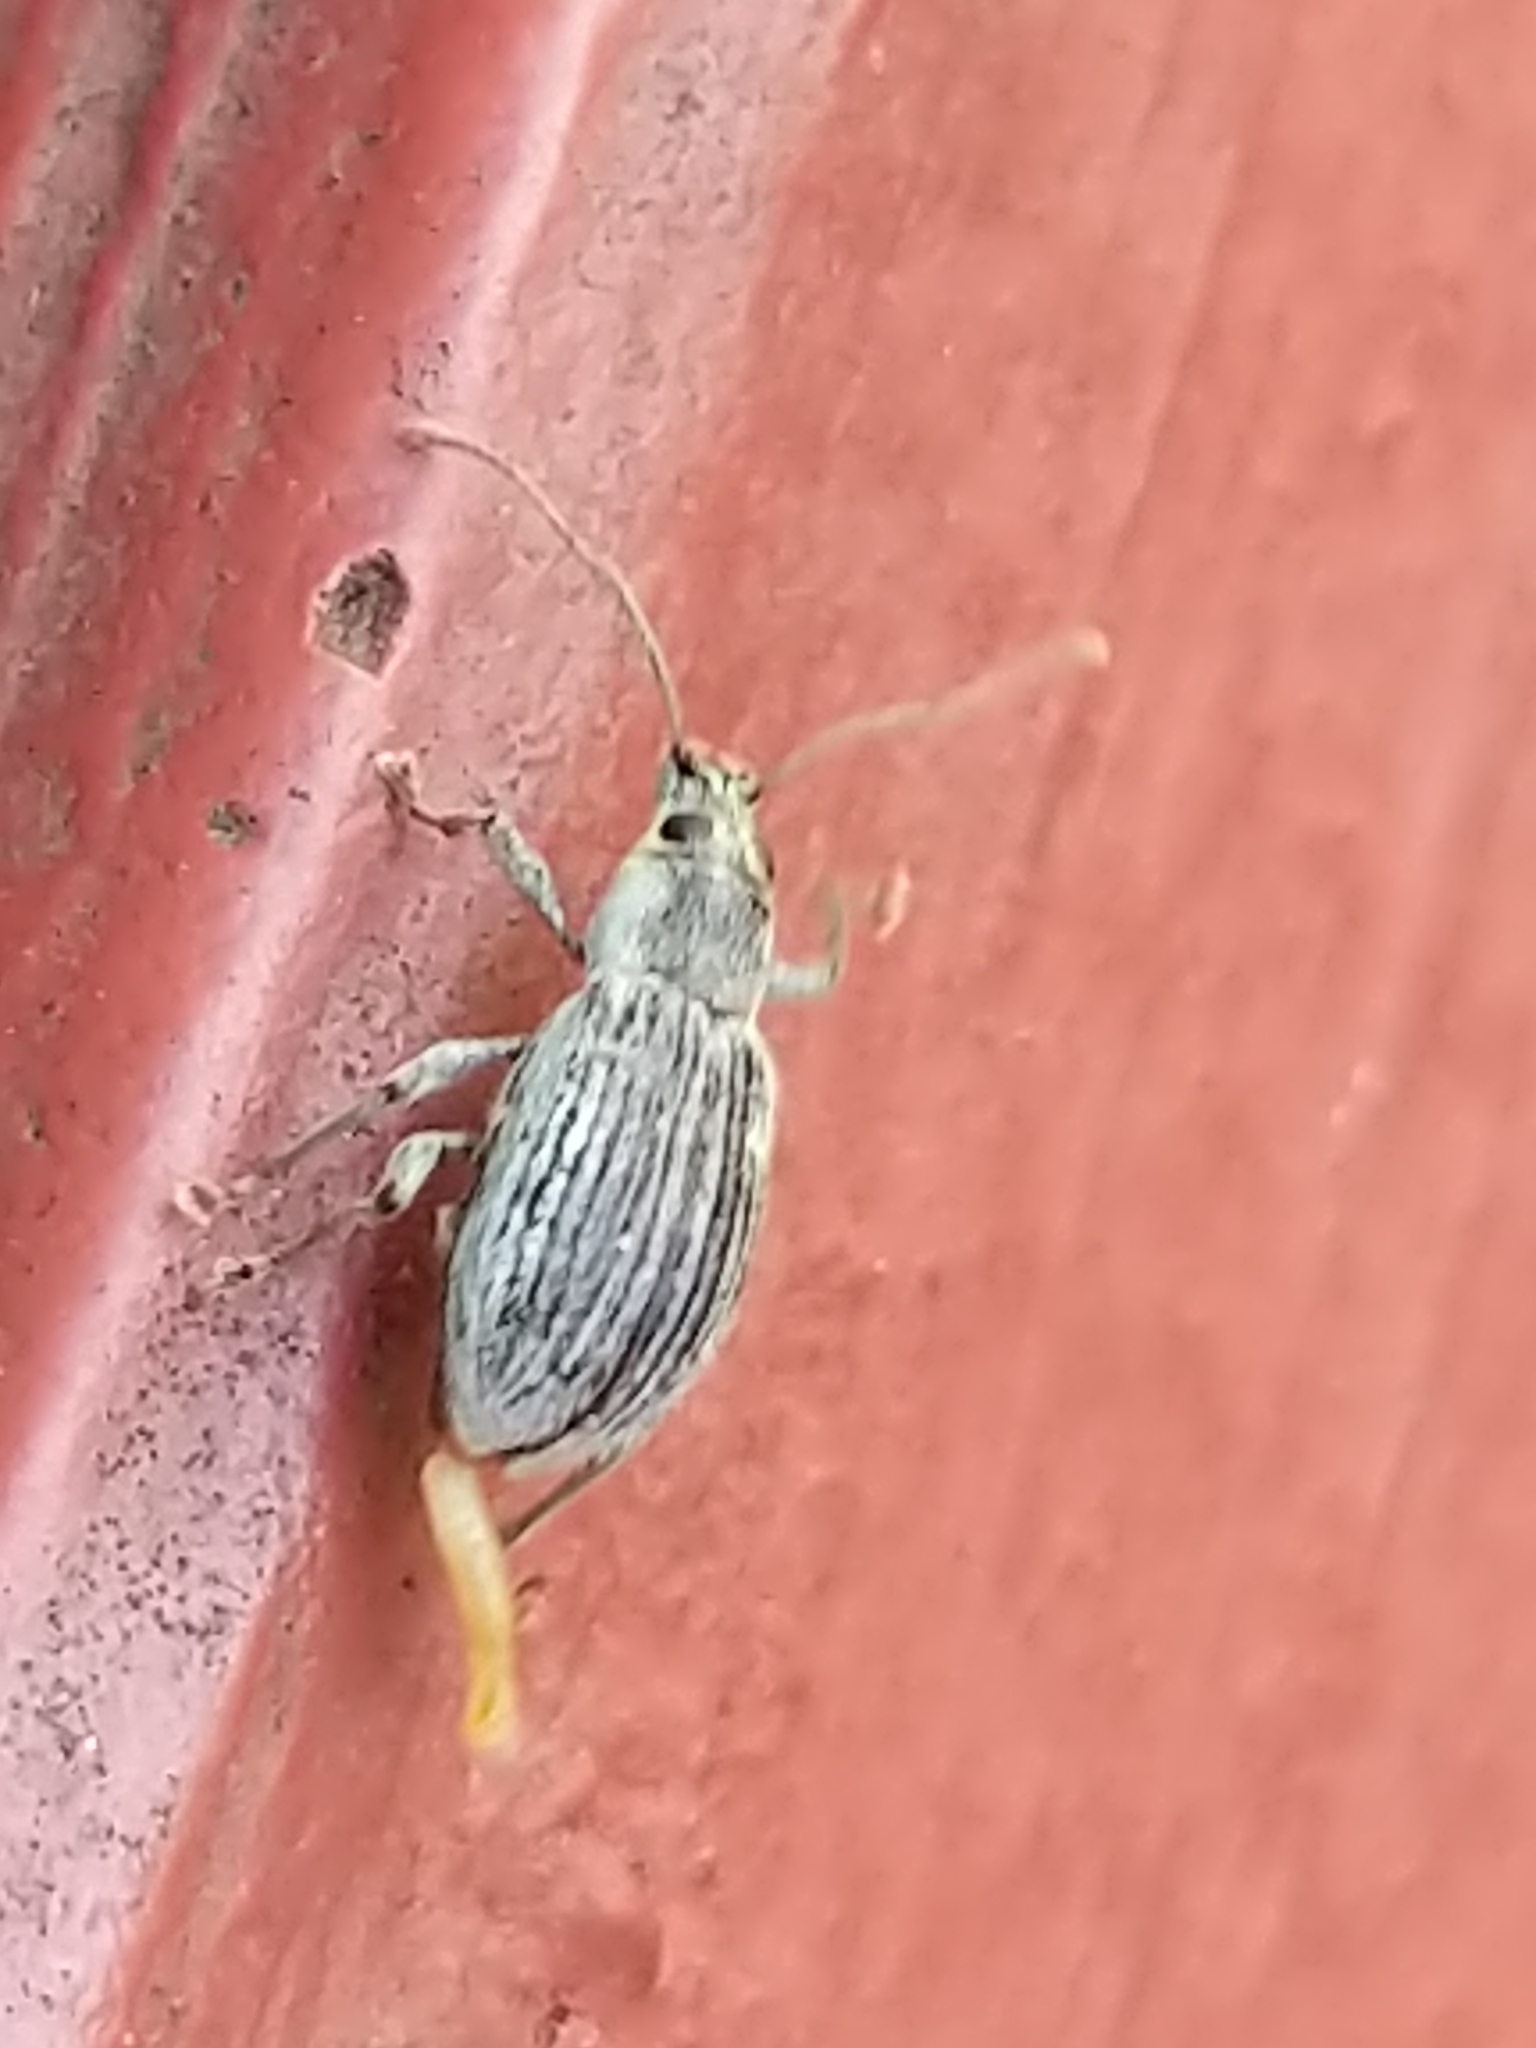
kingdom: Animalia
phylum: Arthropoda
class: Insecta
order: Coleoptera
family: Curculionidae
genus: Cyrtepistomus
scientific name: Cyrtepistomus castaneus
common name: Weevil
